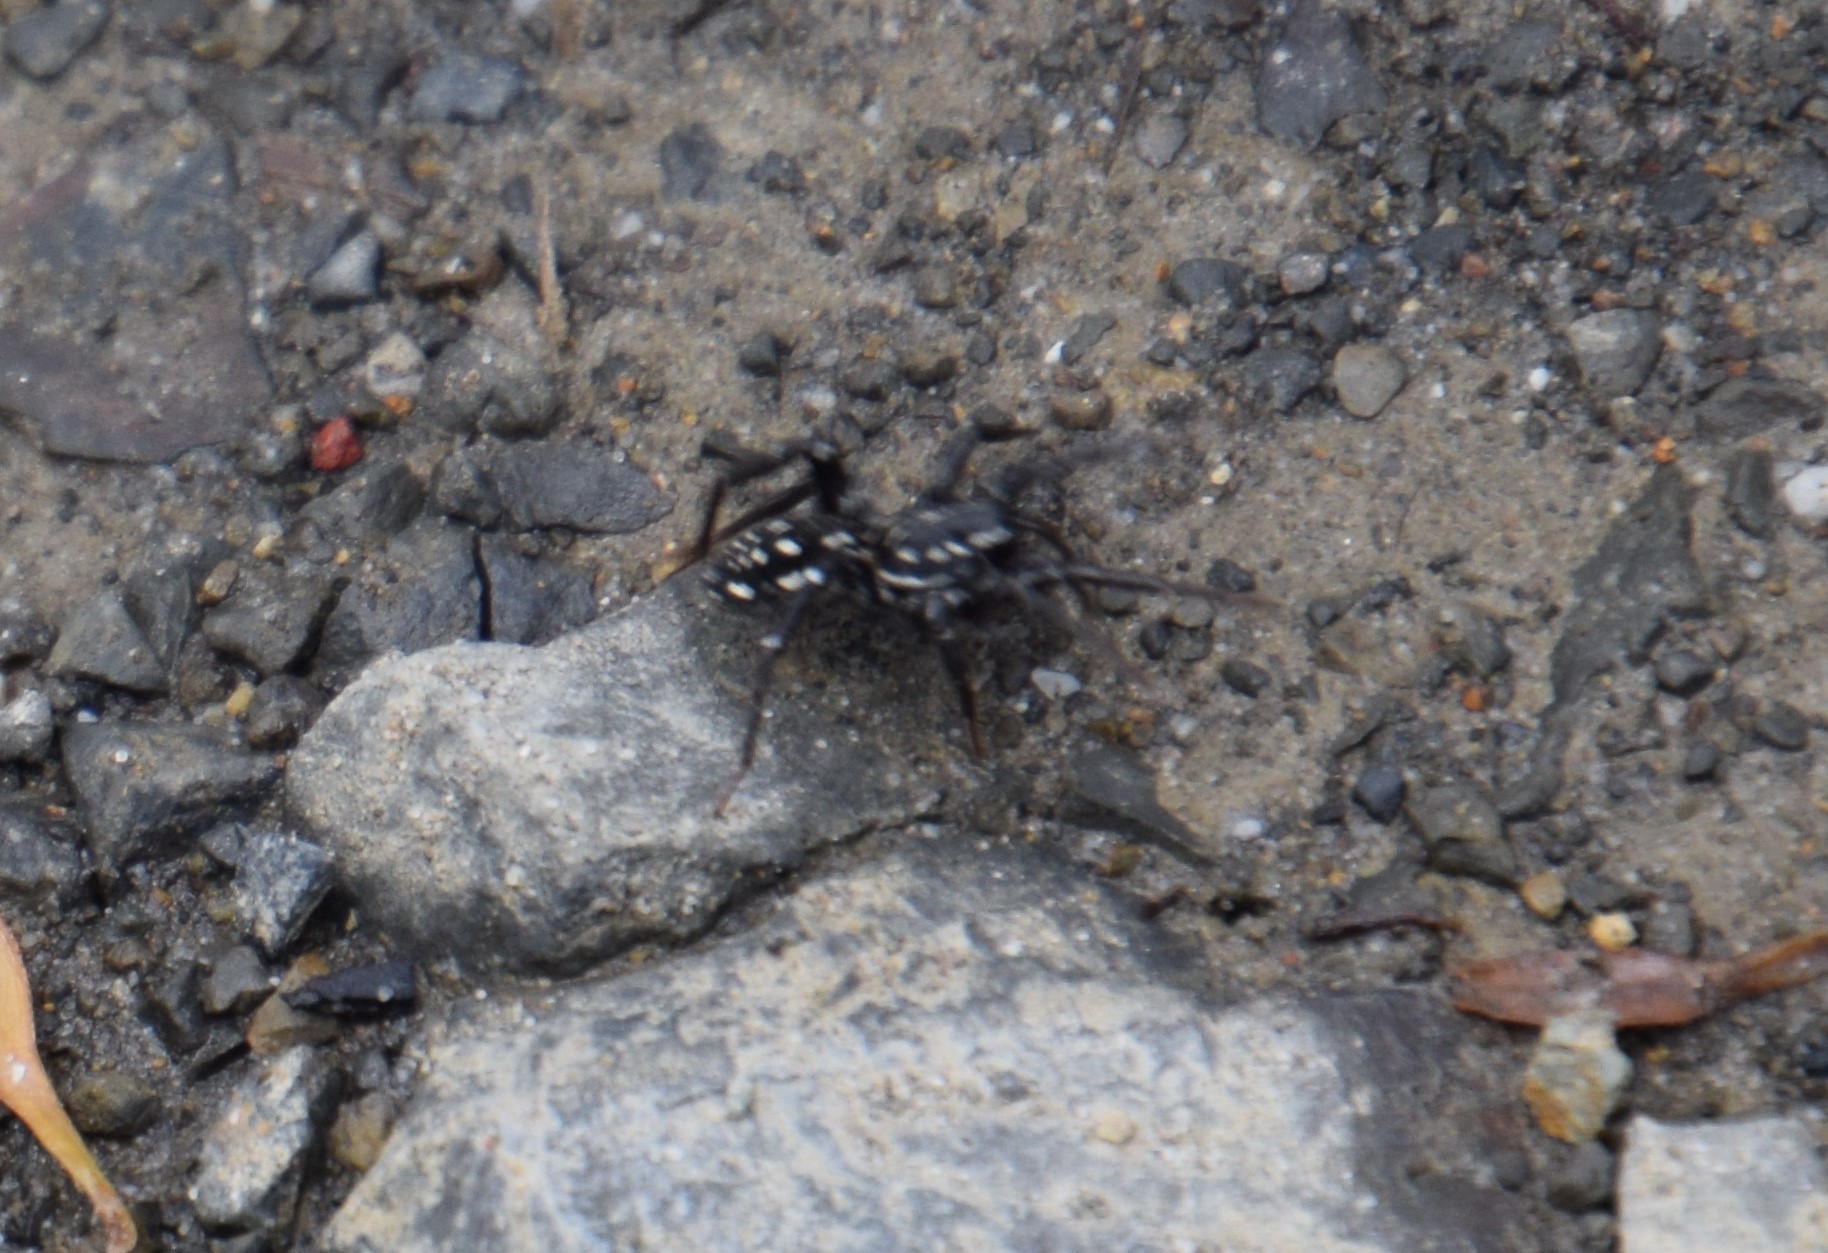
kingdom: Animalia
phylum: Arthropoda
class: Arachnida
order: Araneae
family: Corinnidae
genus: Nyssus
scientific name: Nyssus albopunctatus
